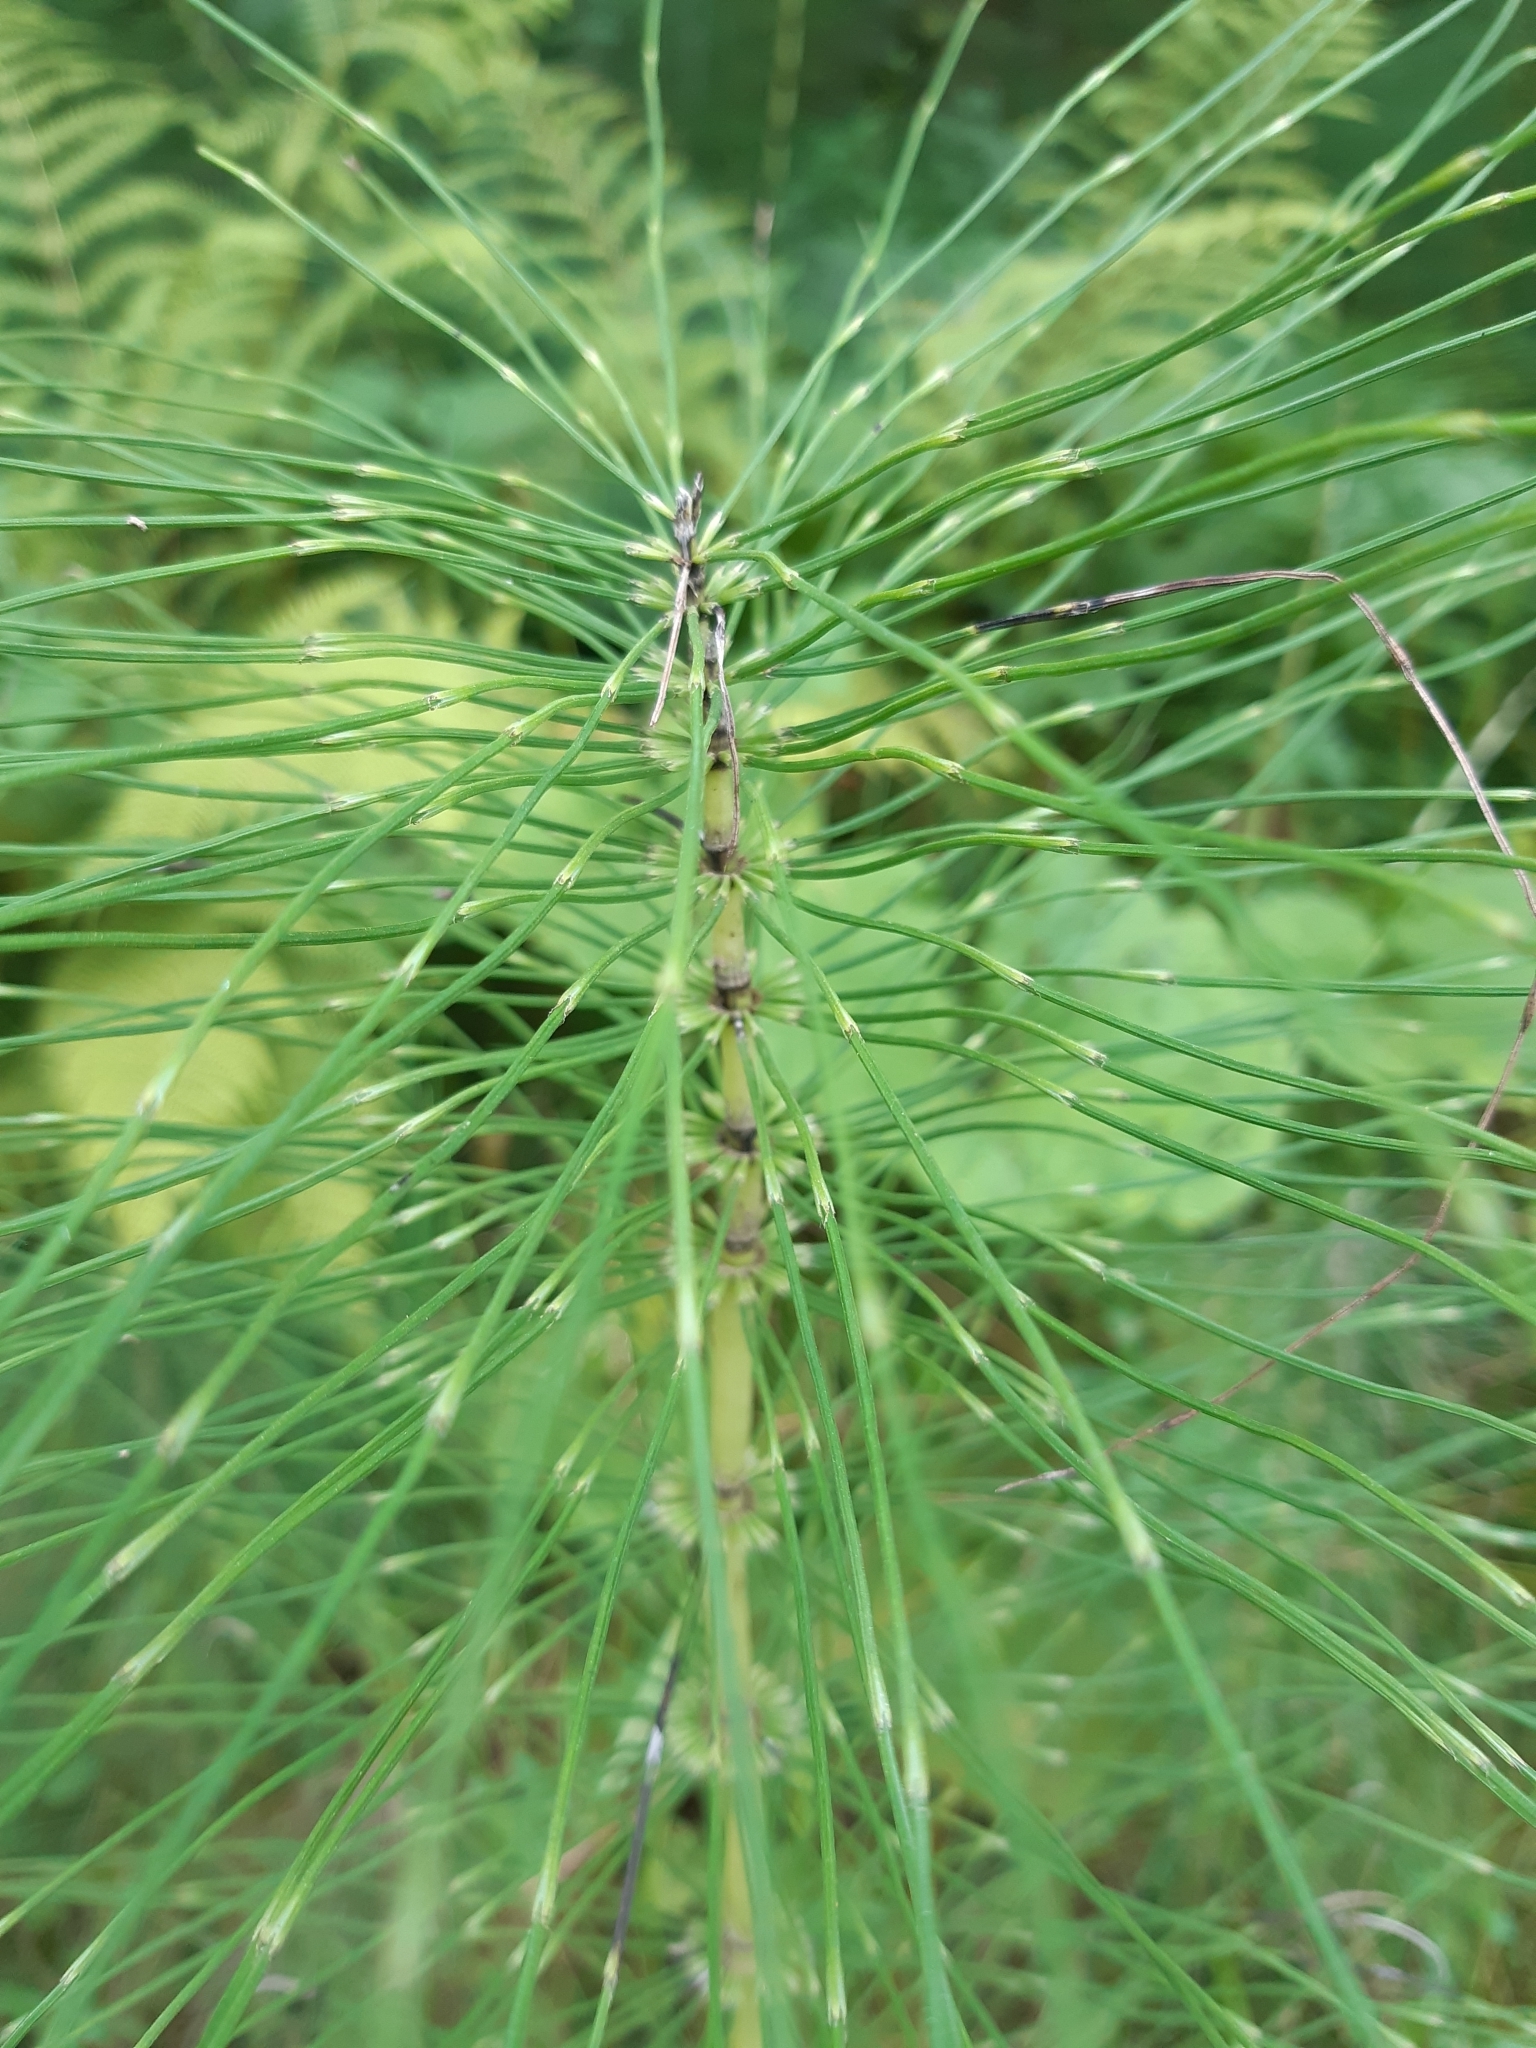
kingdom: Plantae
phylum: Tracheophyta
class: Polypodiopsida
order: Equisetales
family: Equisetaceae
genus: Equisetum
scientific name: Equisetum telmateia
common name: Great horsetail
